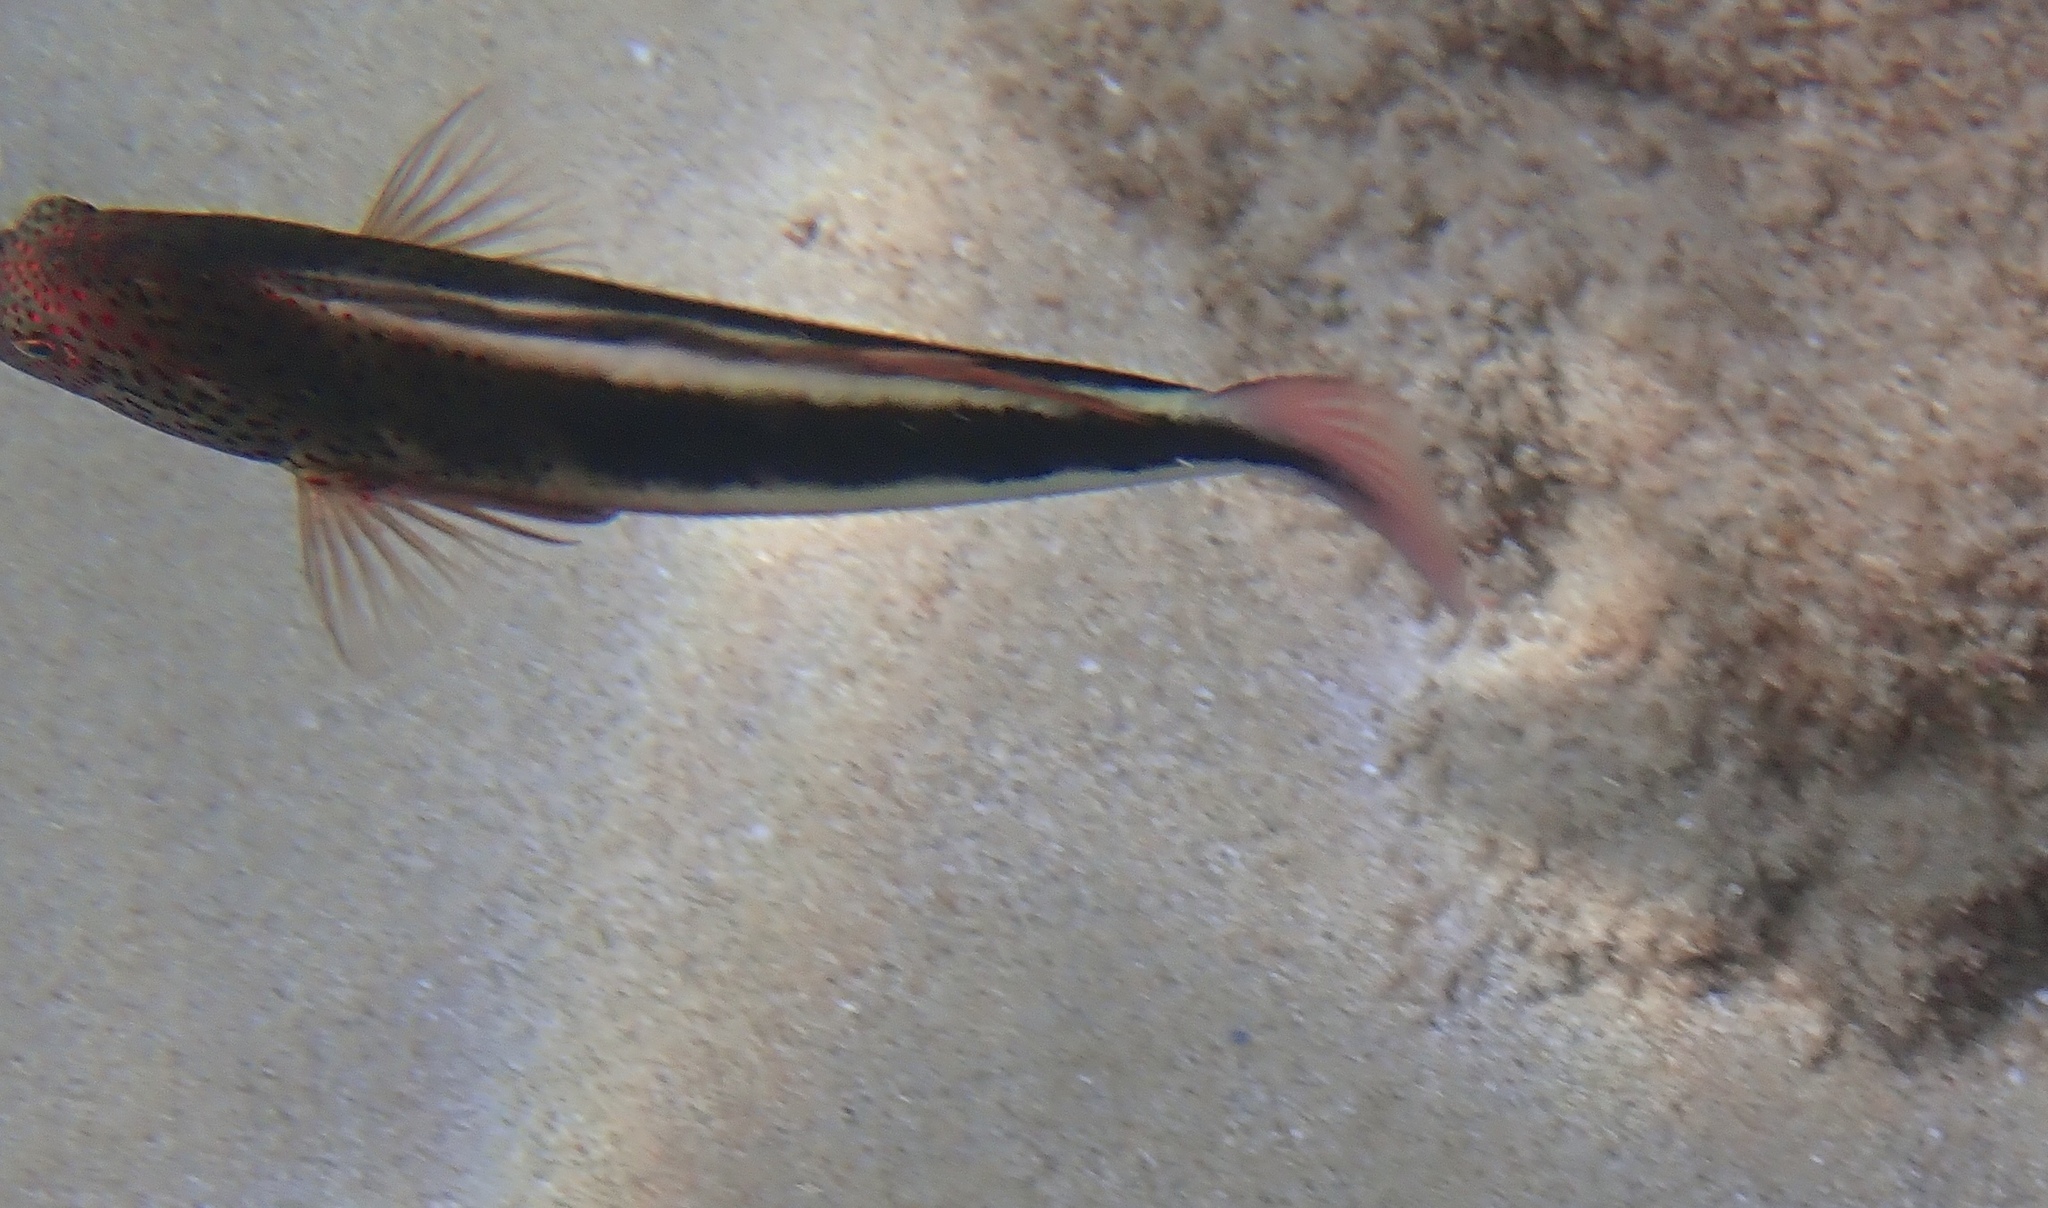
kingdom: Animalia
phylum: Chordata
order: Perciformes
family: Cirrhitidae
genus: Paracirrhites
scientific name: Paracirrhites forsteri
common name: Freckled hawkfish
